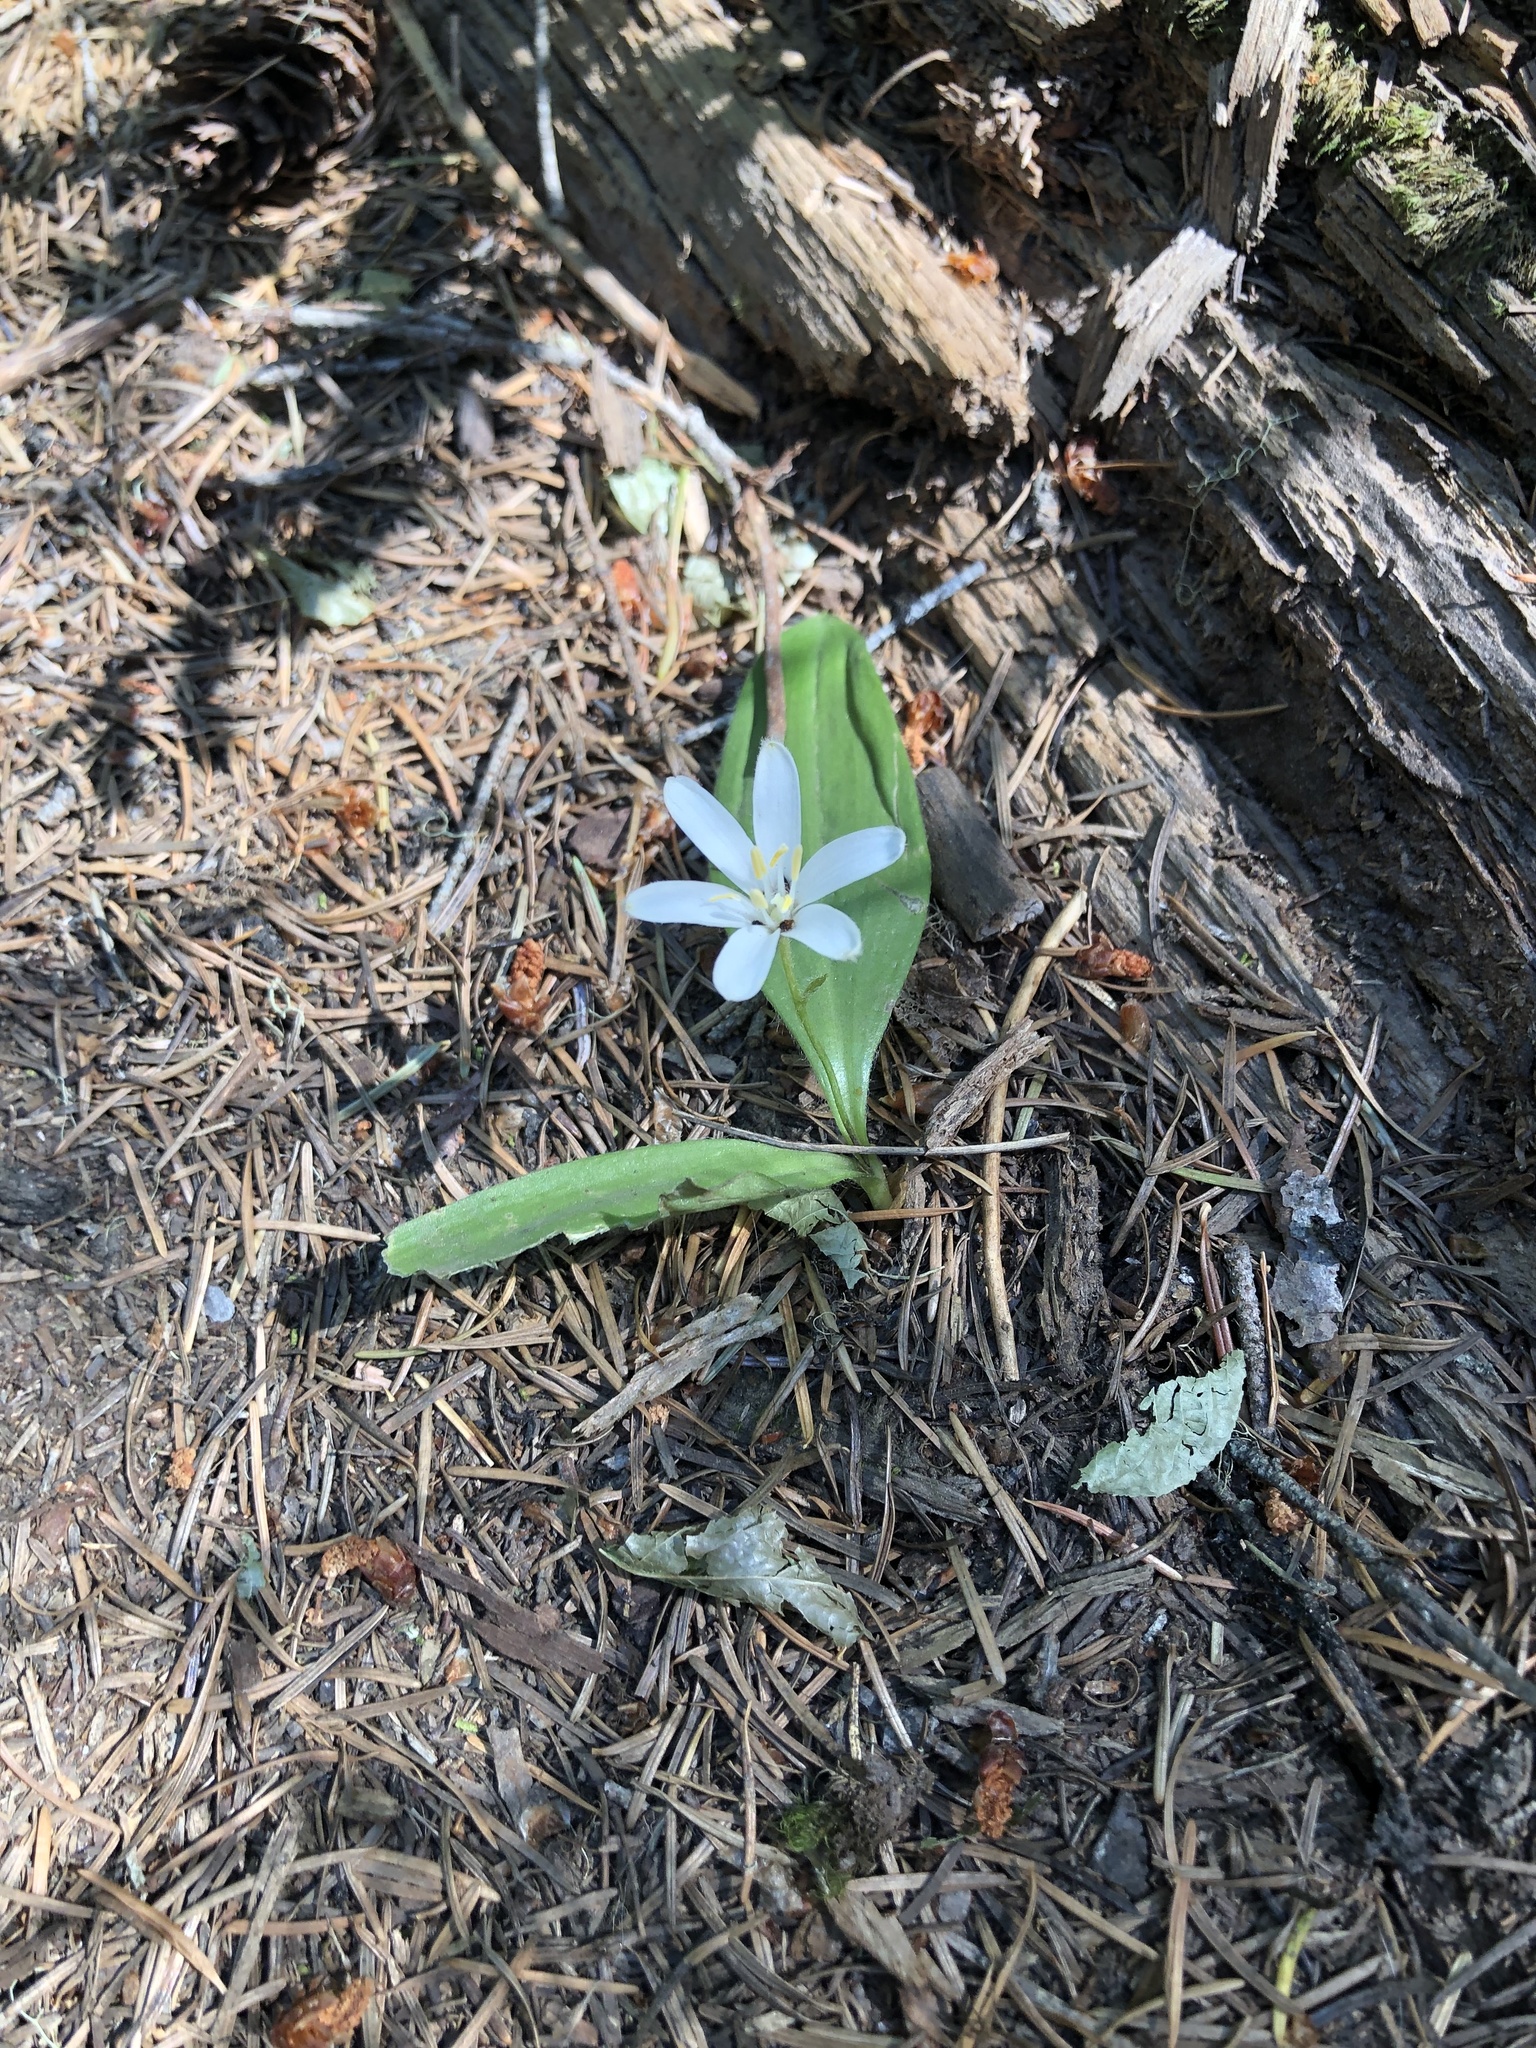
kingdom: Plantae
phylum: Tracheophyta
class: Liliopsida
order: Liliales
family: Liliaceae
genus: Clintonia
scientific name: Clintonia uniflora
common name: Queen's cup
